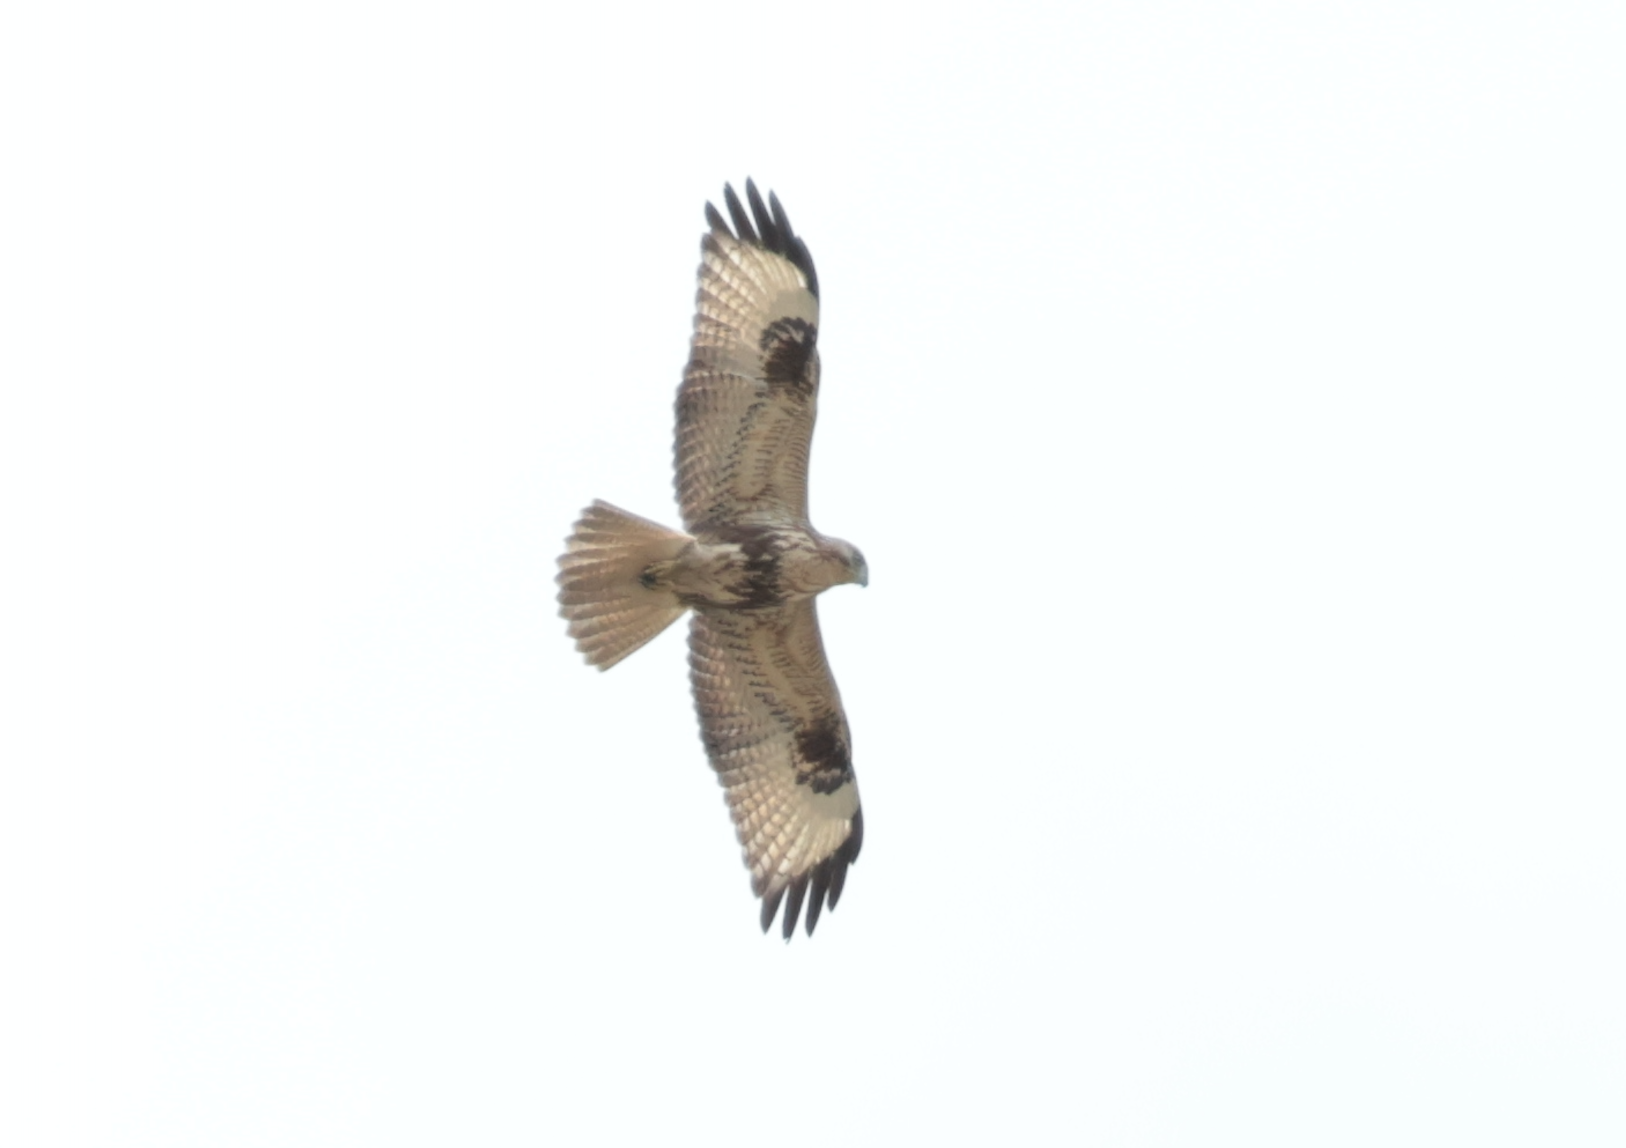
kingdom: Animalia
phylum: Chordata
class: Aves
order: Accipitriformes
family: Accipitridae
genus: Buteo
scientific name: Buteo hemilasius
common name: Upland buzzard
